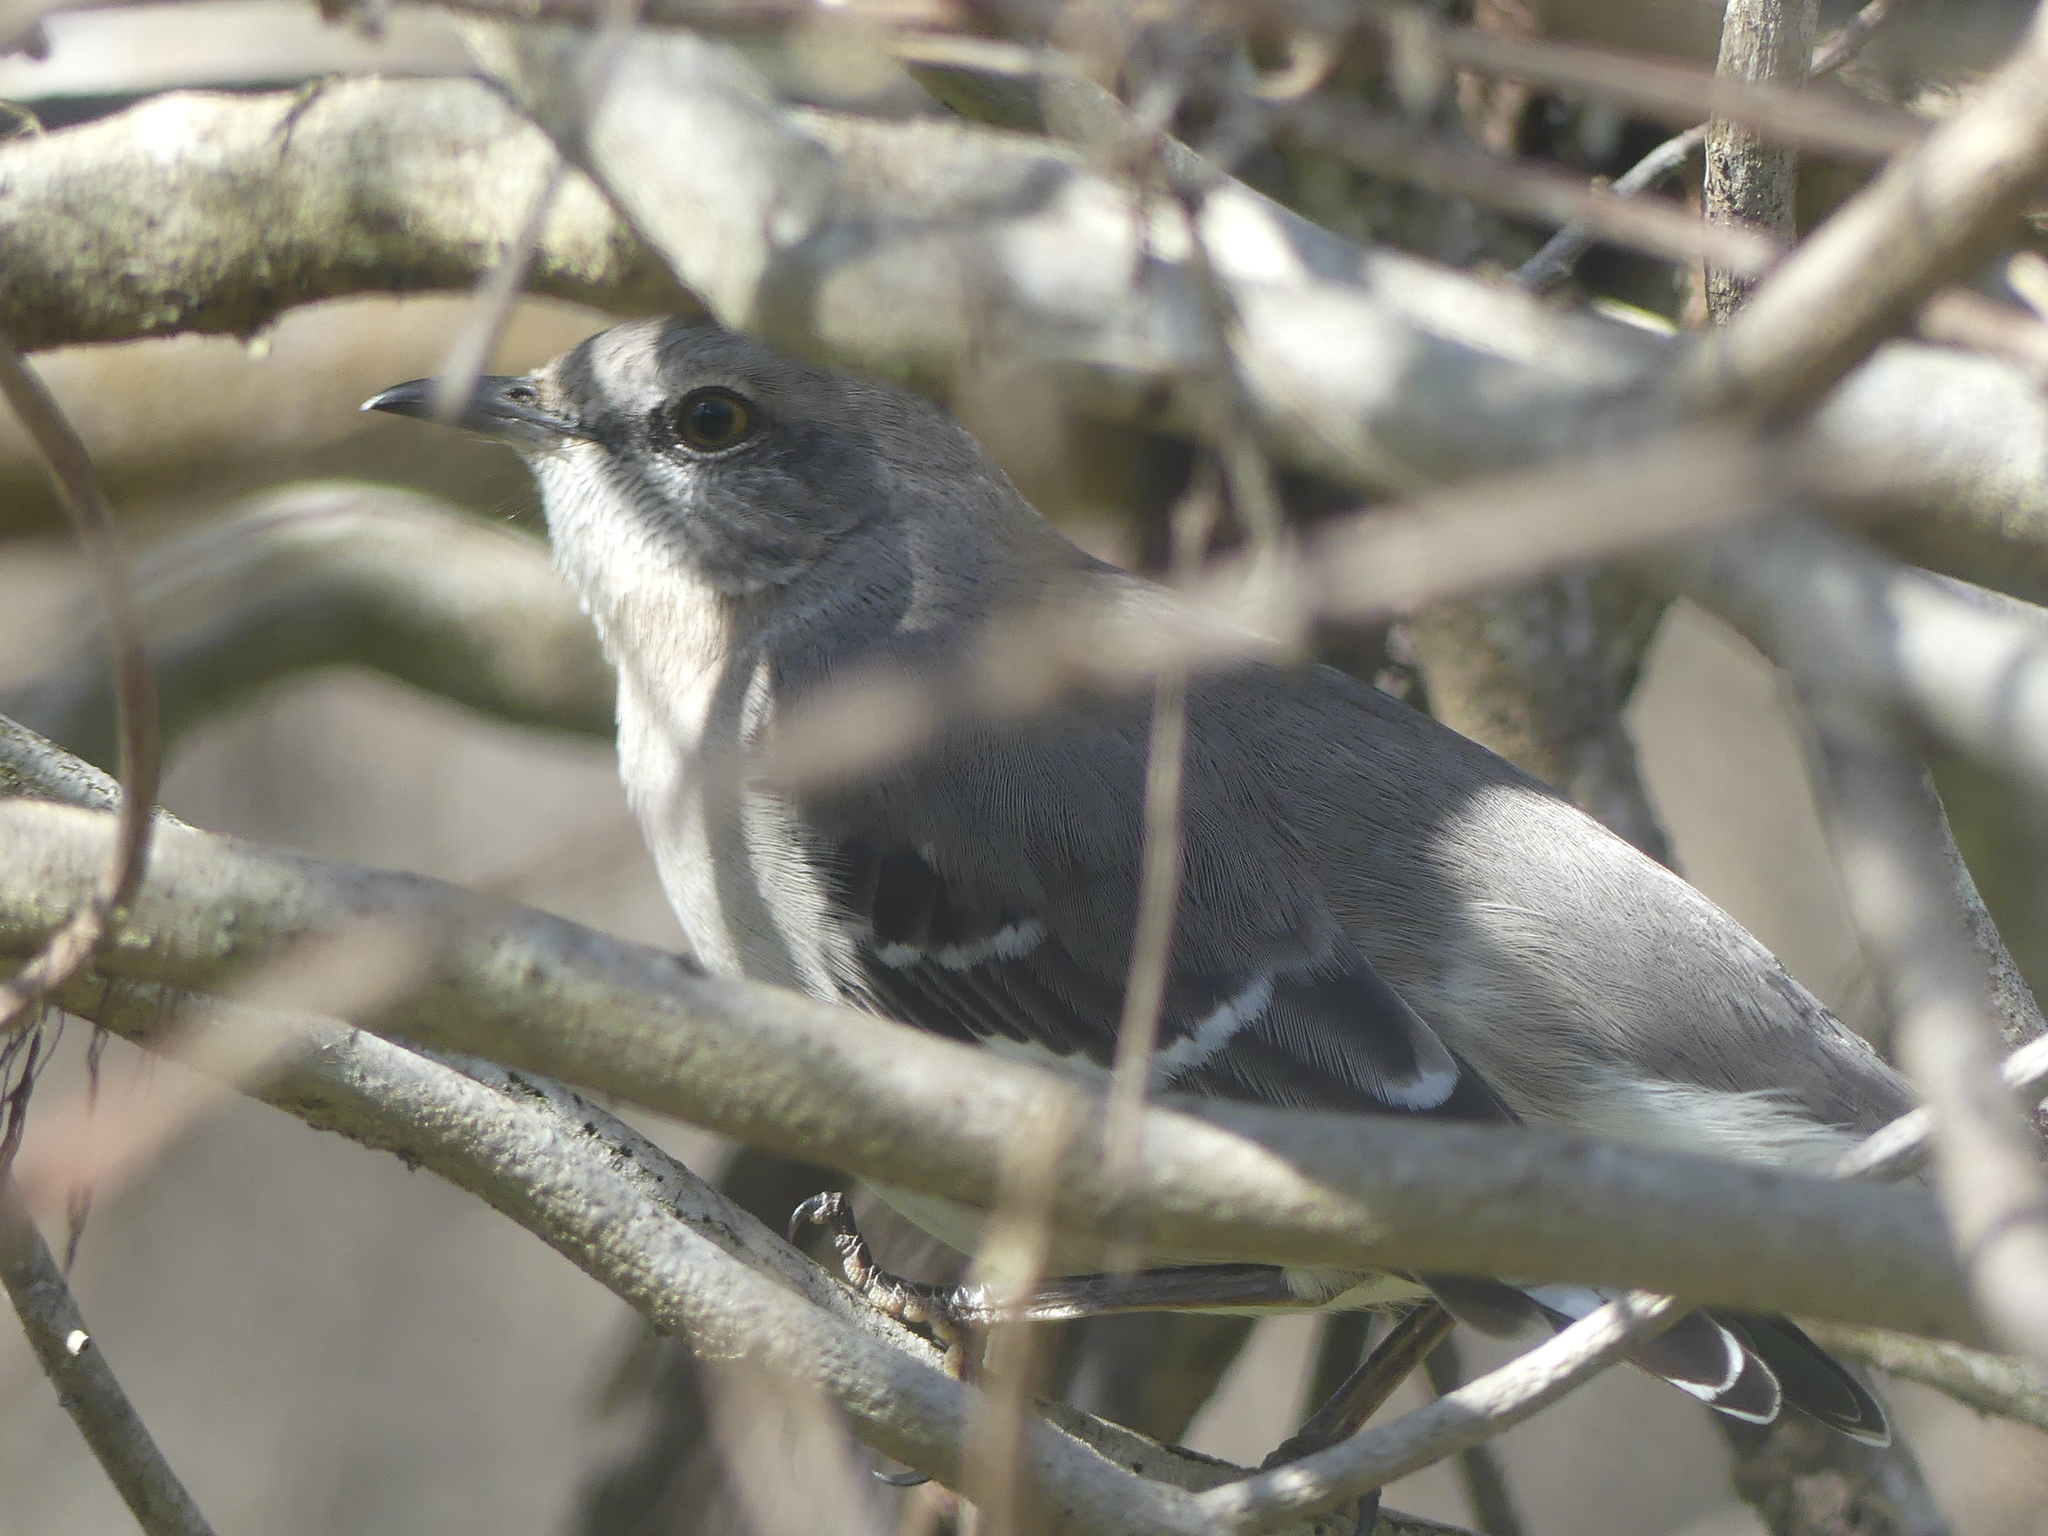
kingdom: Animalia
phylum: Chordata
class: Aves
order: Passeriformes
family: Mimidae
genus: Mimus
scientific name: Mimus polyglottos
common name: Northern mockingbird
